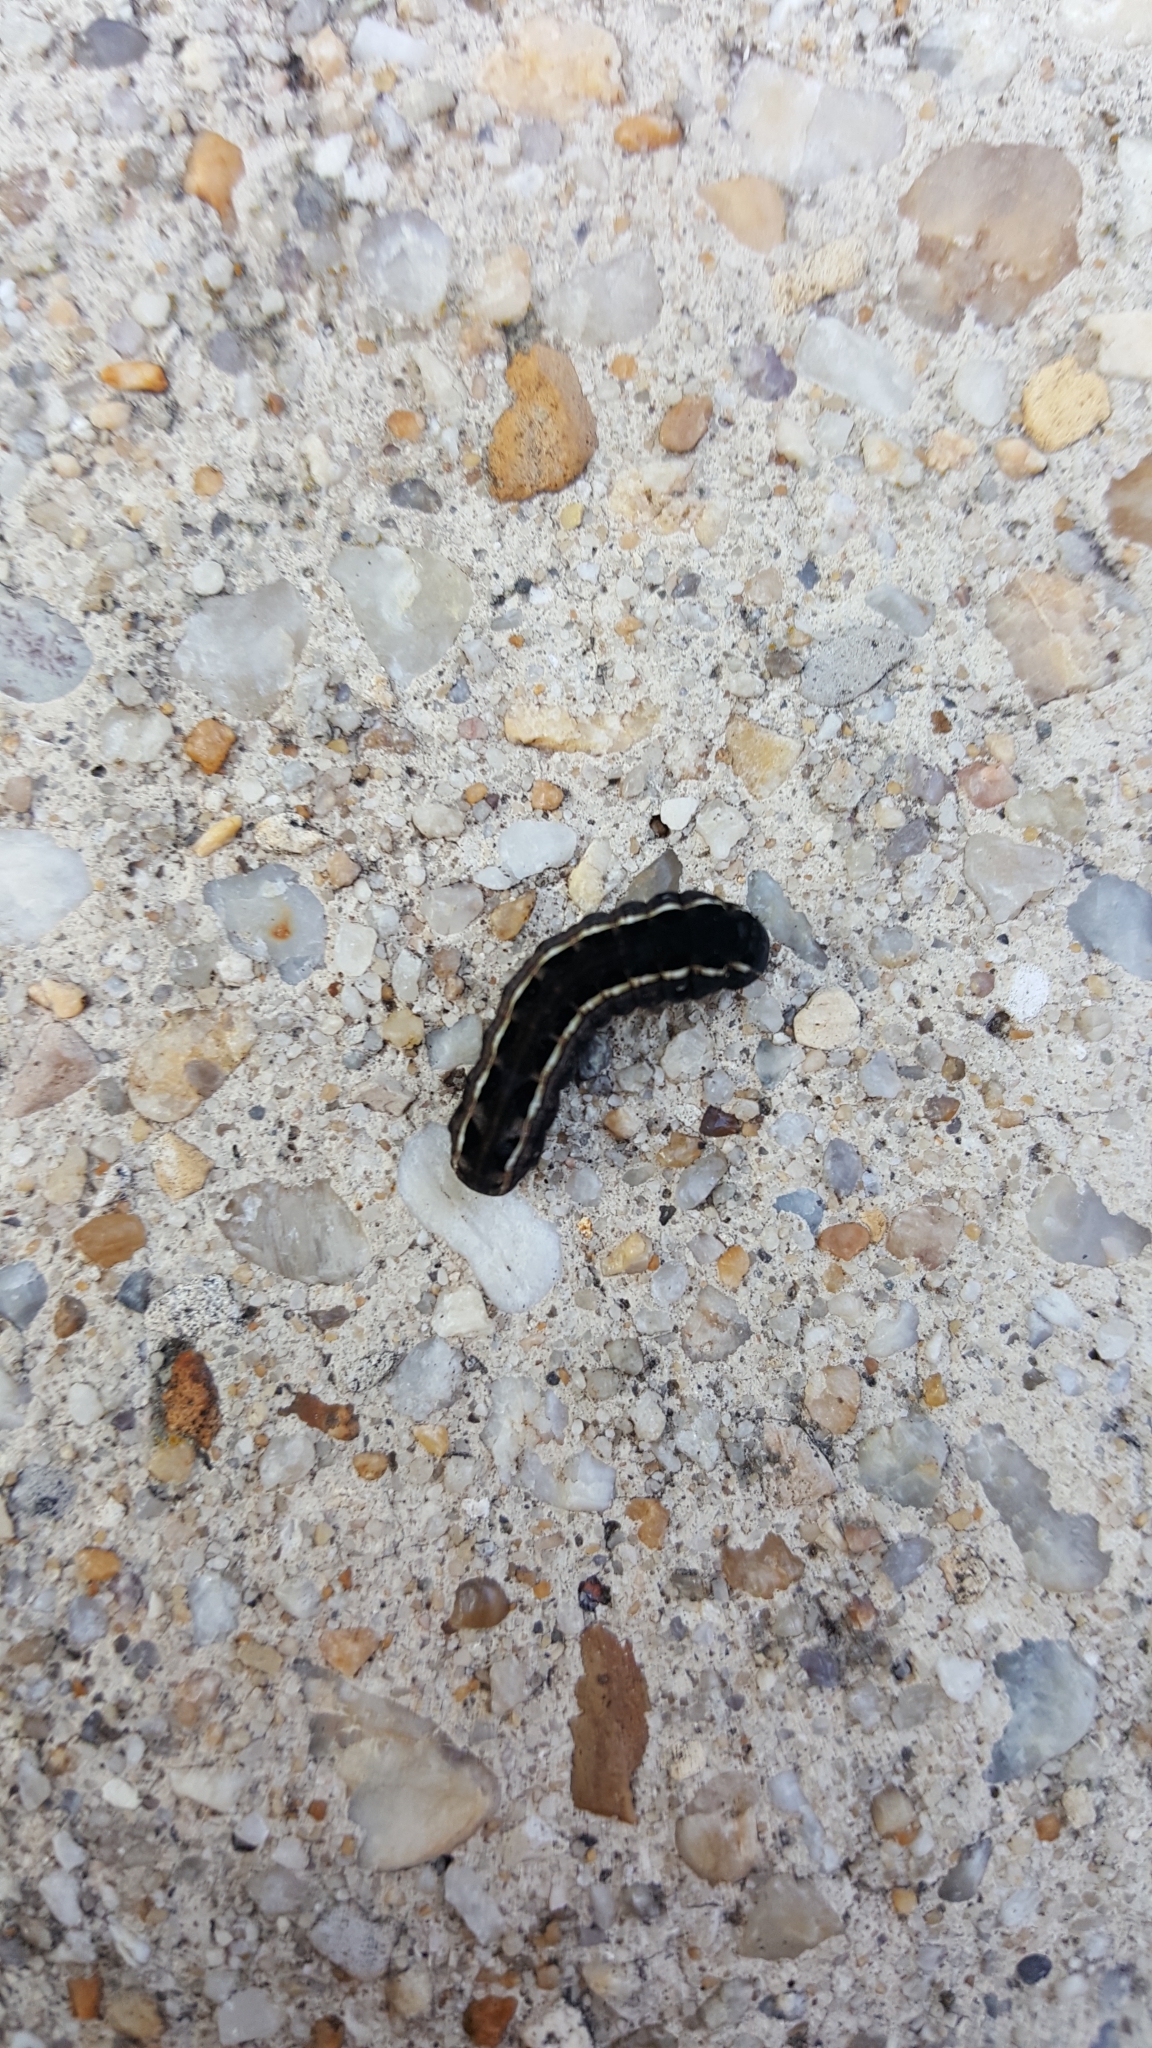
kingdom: Animalia
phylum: Arthropoda
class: Insecta
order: Lepidoptera
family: Noctuidae
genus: Spodoptera
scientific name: Spodoptera ornithogalli
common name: Yellow-striped armyworm
